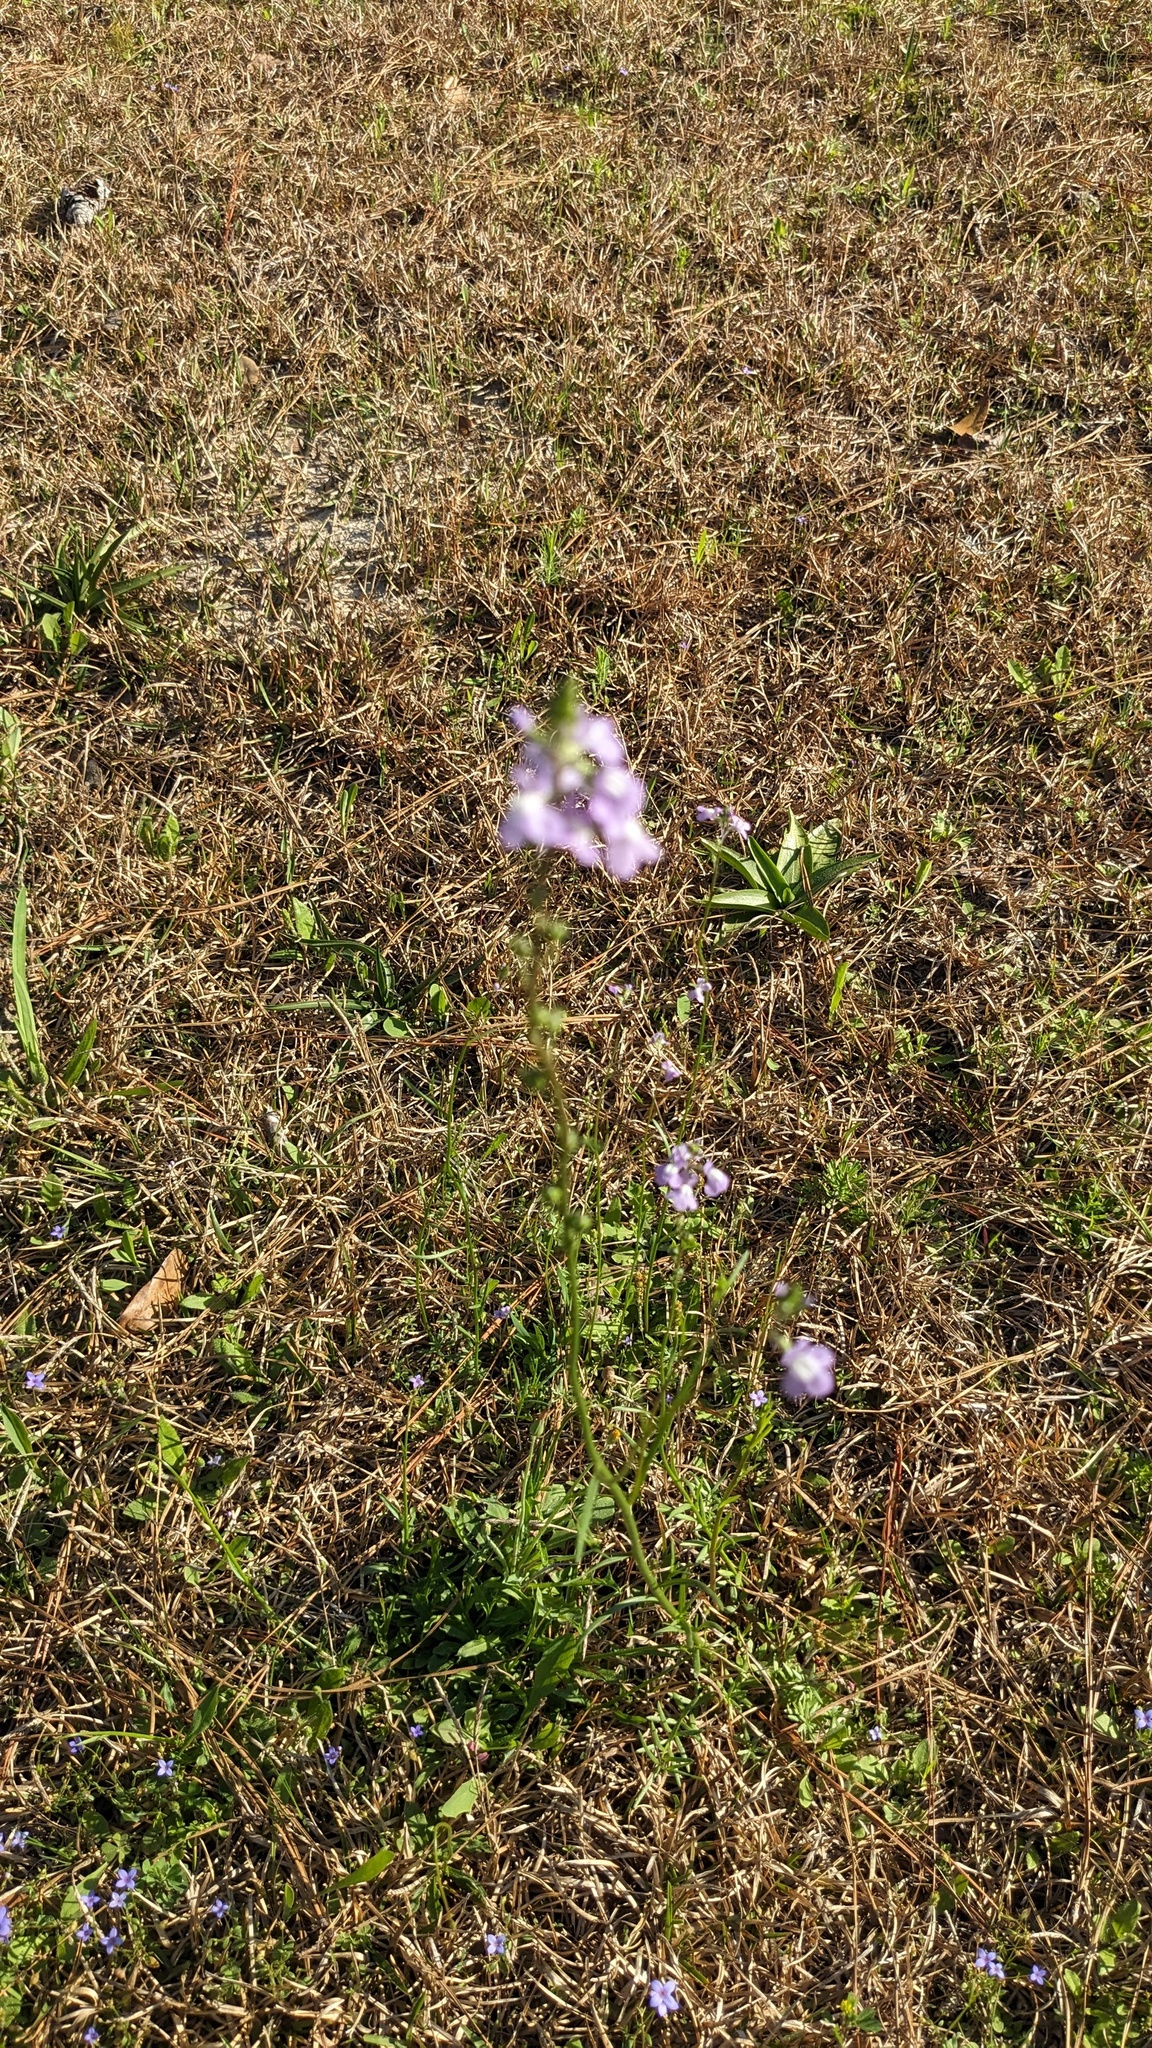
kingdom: Plantae
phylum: Tracheophyta
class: Magnoliopsida
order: Lamiales
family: Plantaginaceae
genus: Nuttallanthus
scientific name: Nuttallanthus canadensis
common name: Blue toadflax
